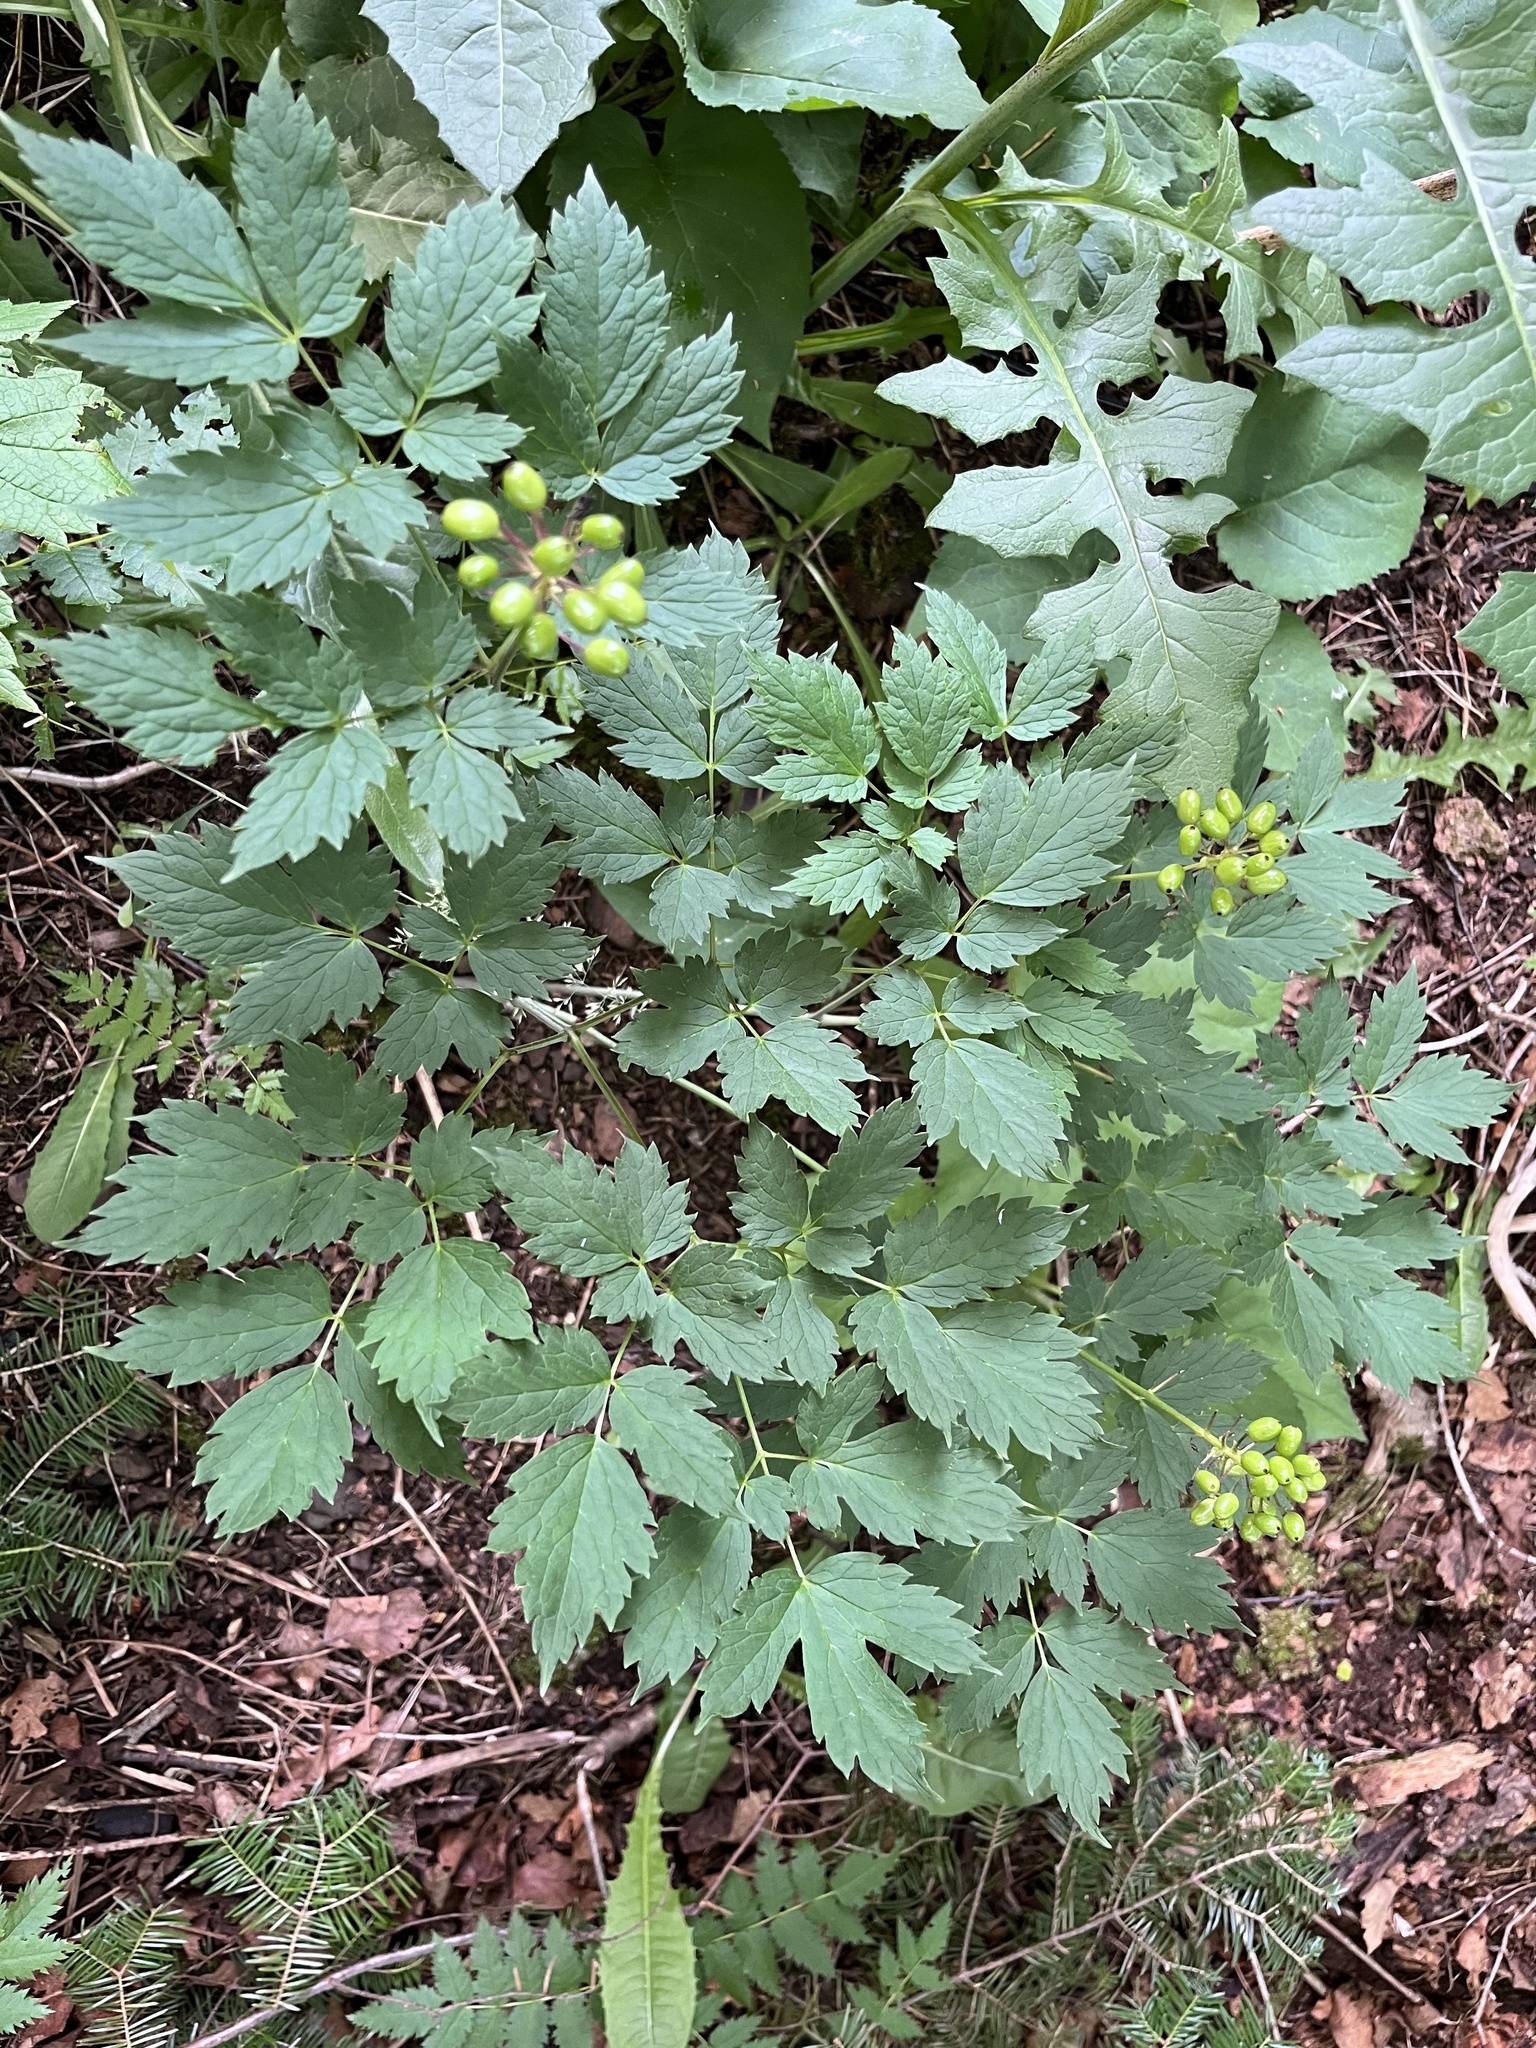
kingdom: Plantae
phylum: Tracheophyta
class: Magnoliopsida
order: Ranunculales
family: Ranunculaceae
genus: Actaea
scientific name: Actaea rubra
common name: Red baneberry
